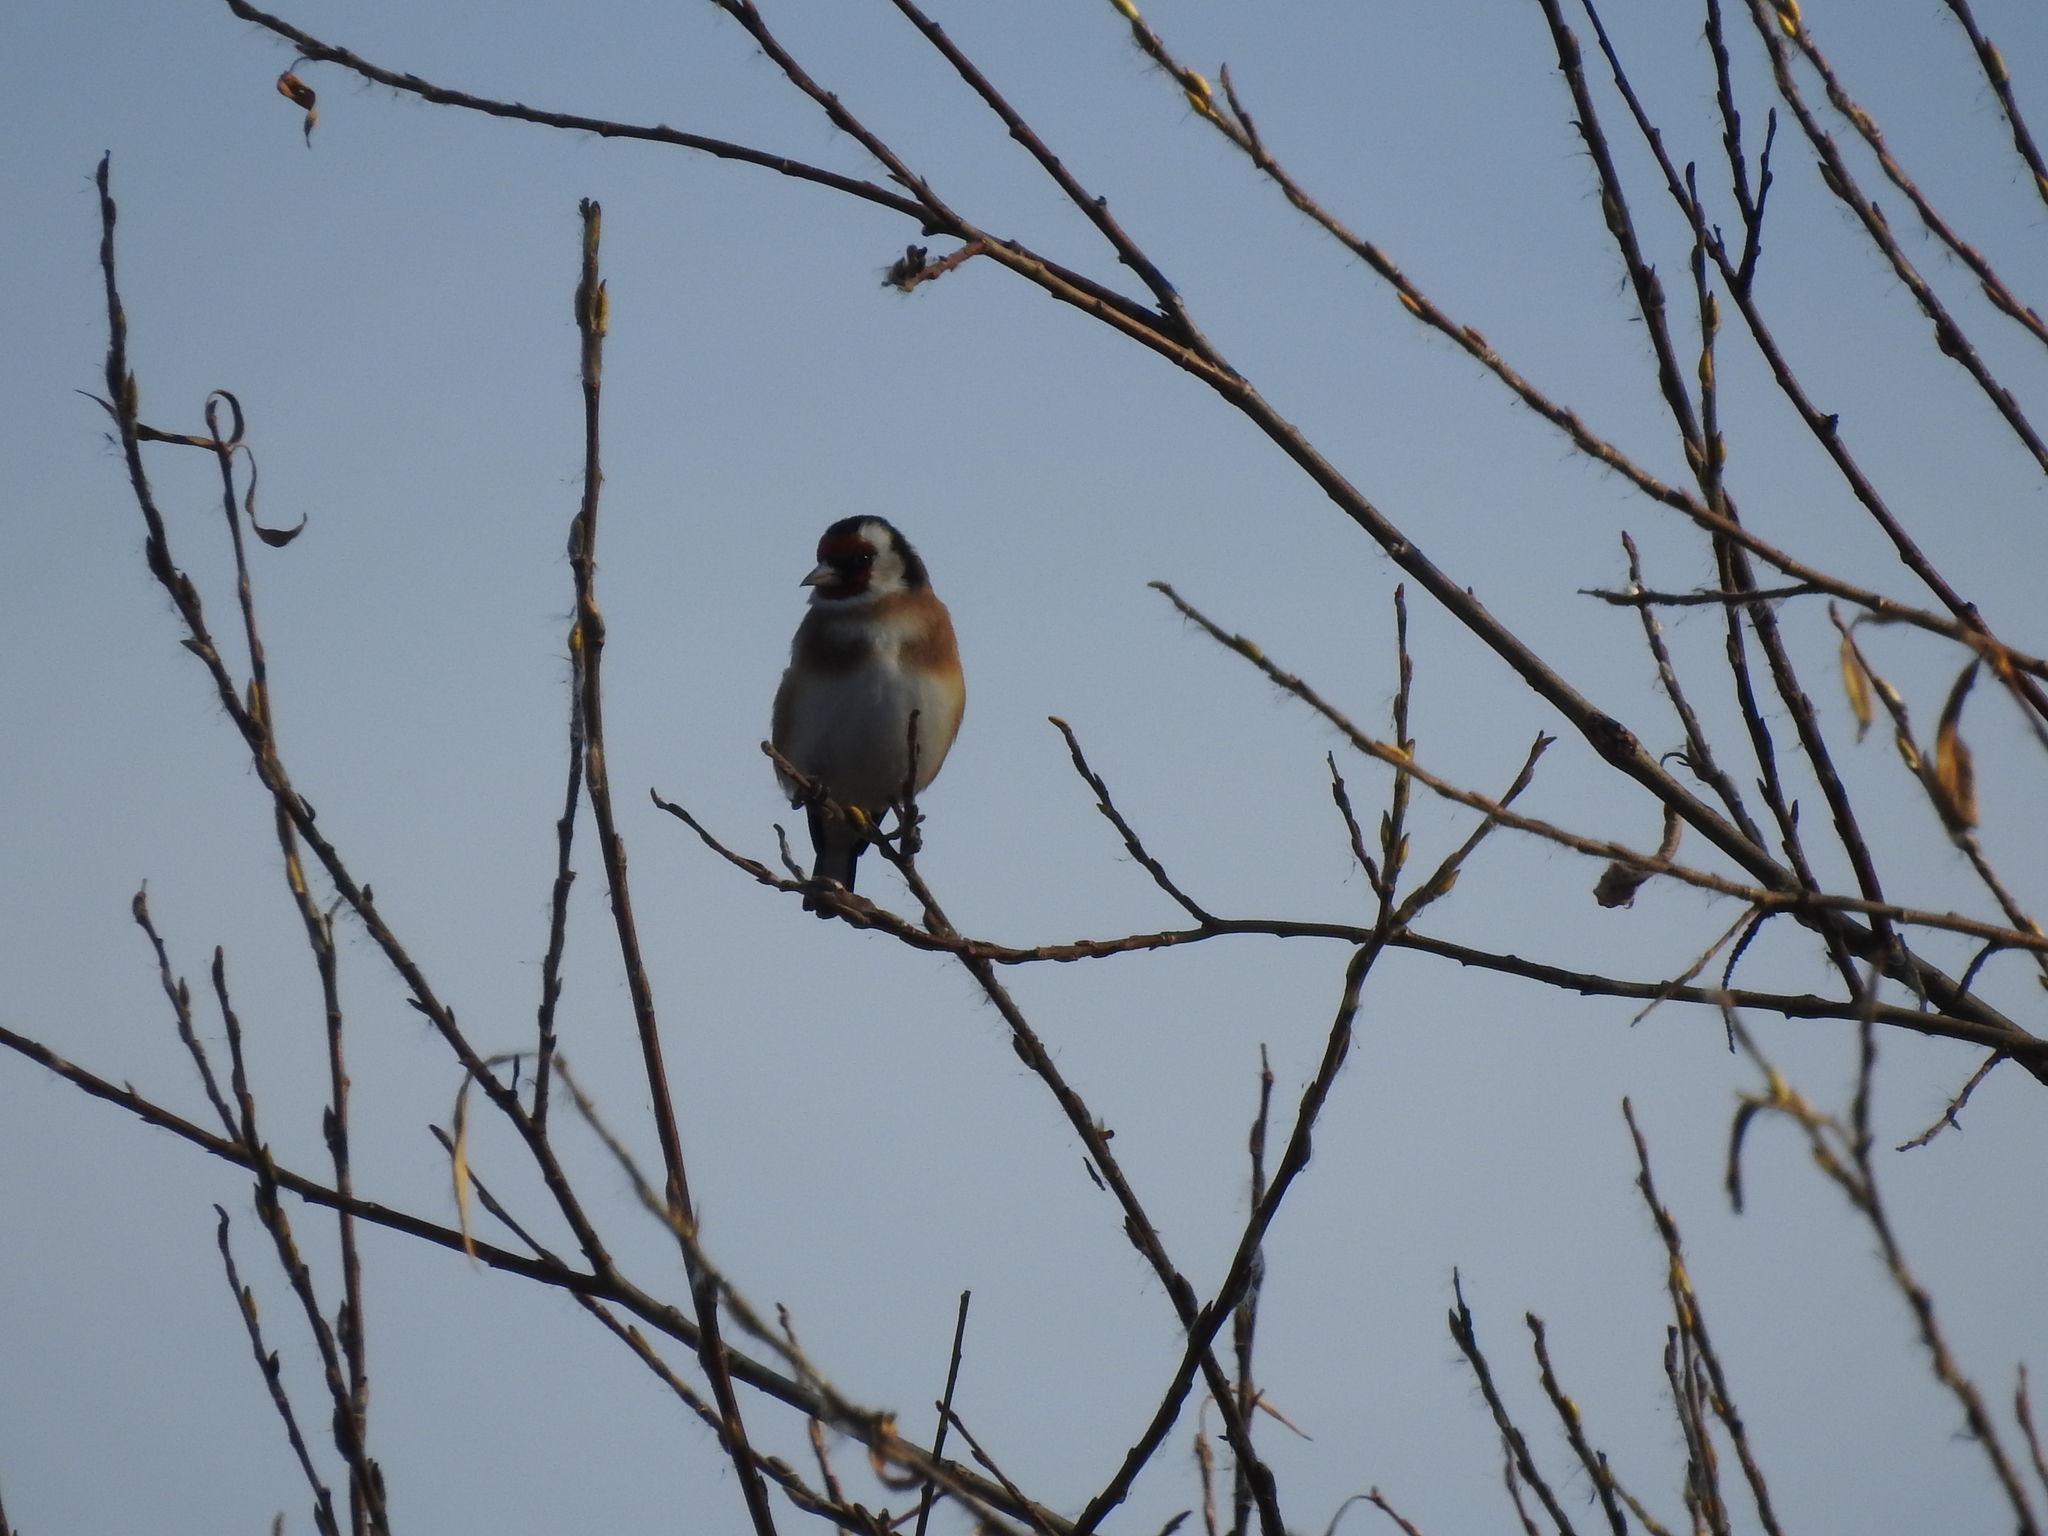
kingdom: Animalia
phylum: Chordata
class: Aves
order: Passeriformes
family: Fringillidae
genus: Carduelis
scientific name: Carduelis carduelis
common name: European goldfinch
